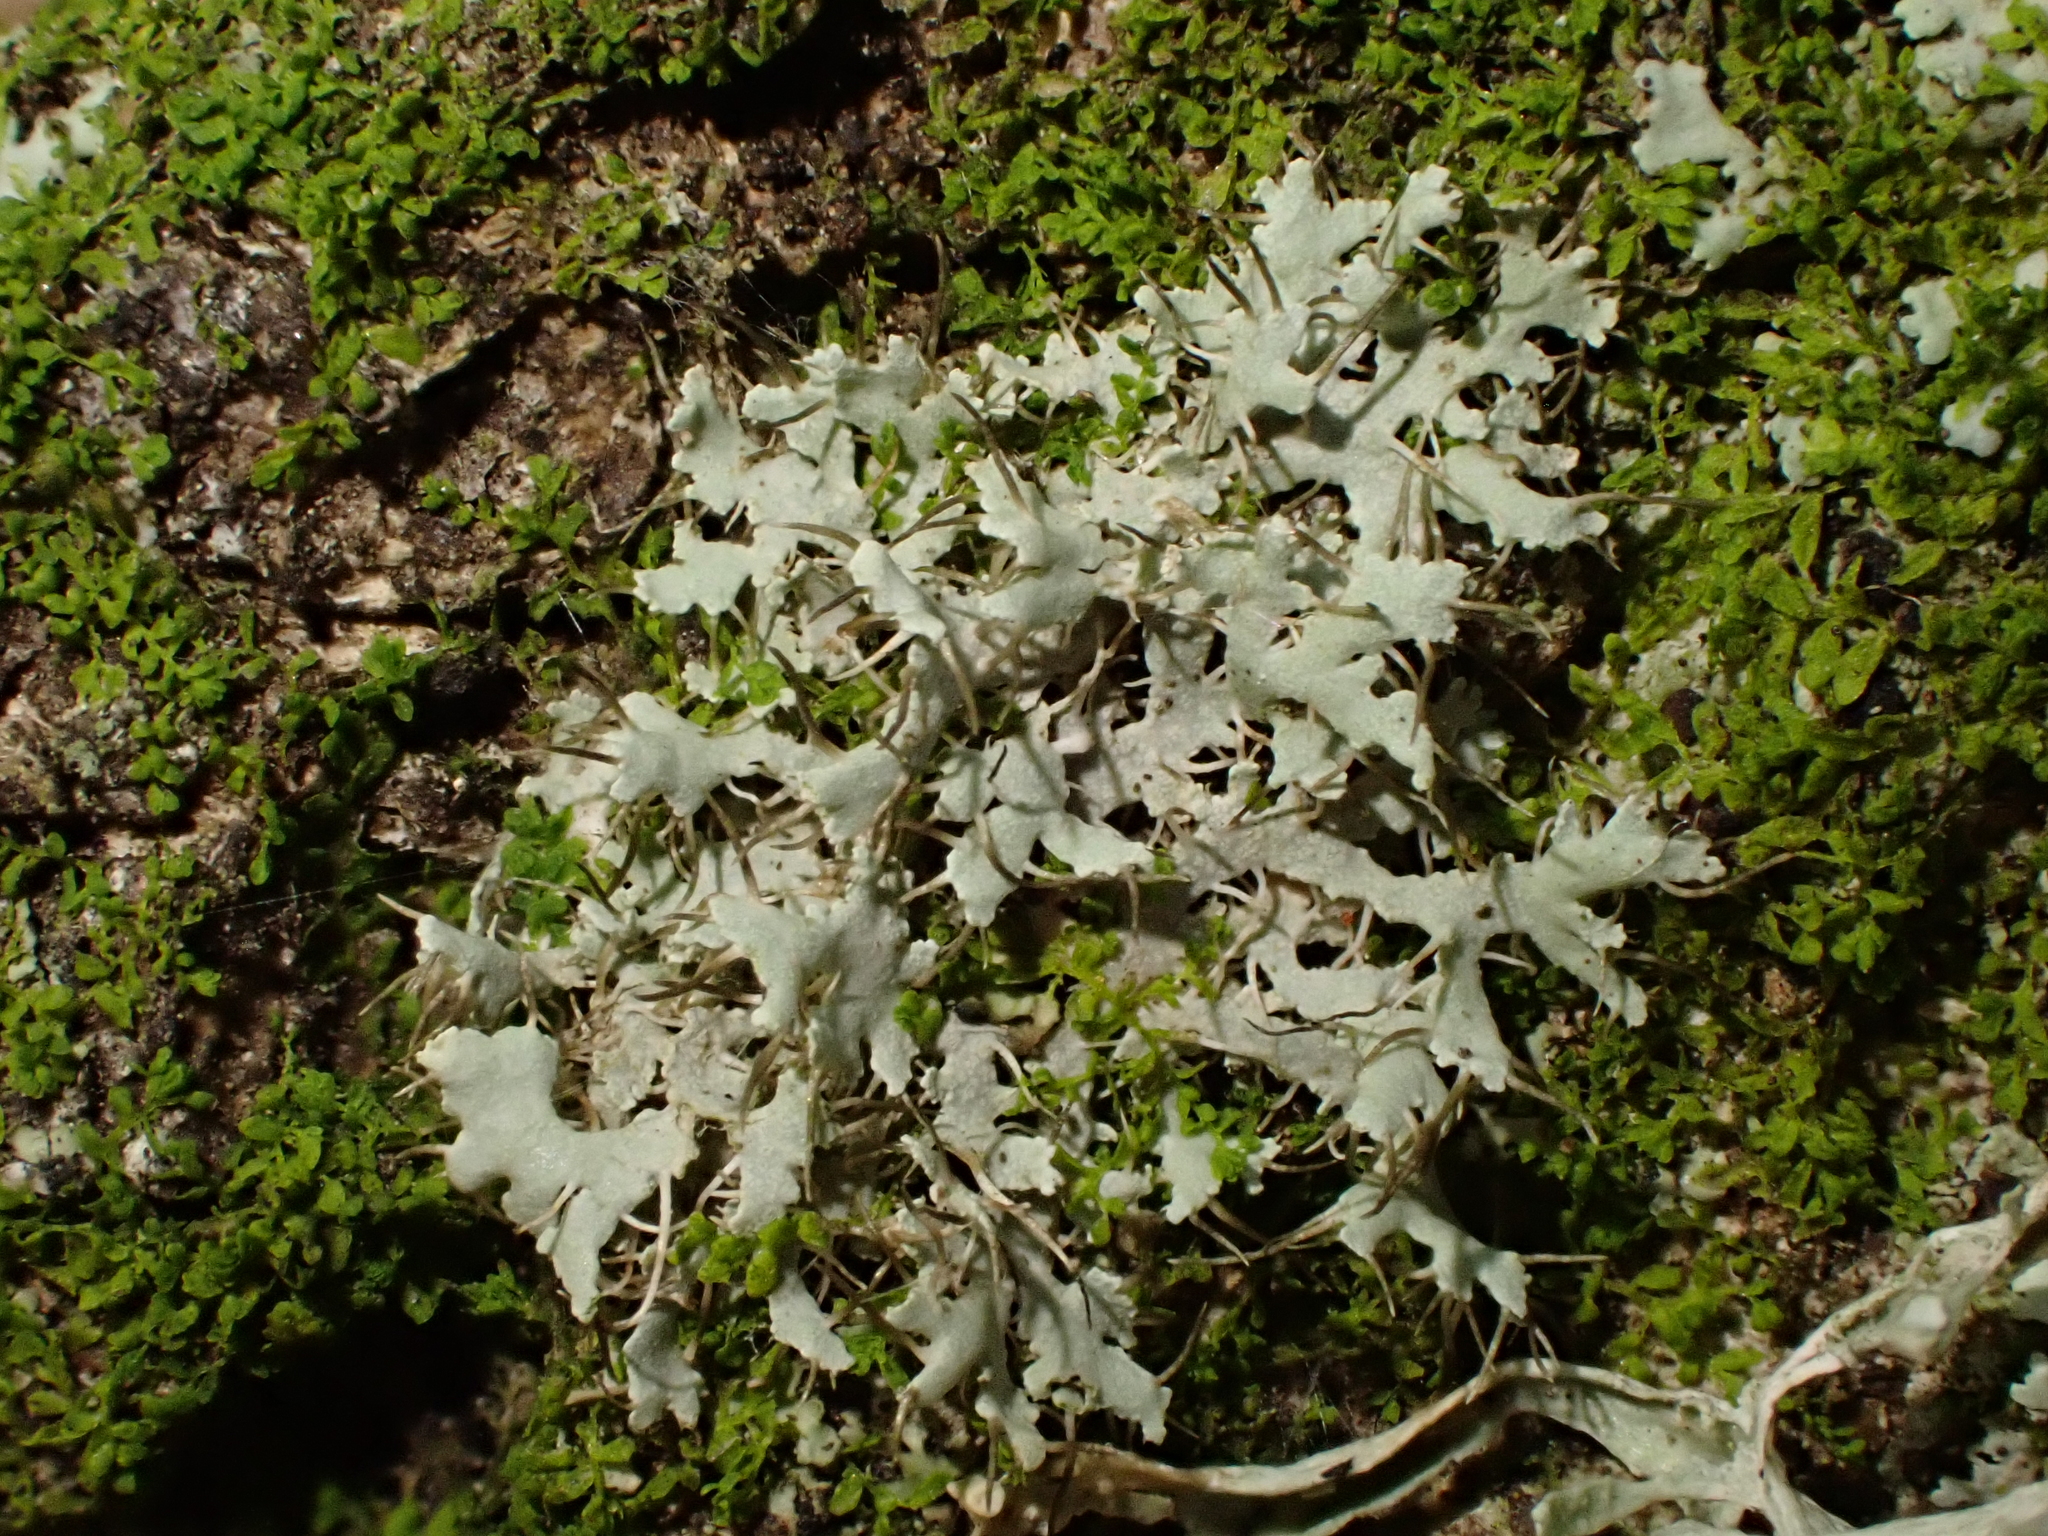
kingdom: Fungi
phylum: Ascomycota
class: Lecanoromycetes
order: Caliciales
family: Physciaceae
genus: Physcia
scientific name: Physcia adscendens
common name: Hooded rosette lichen
